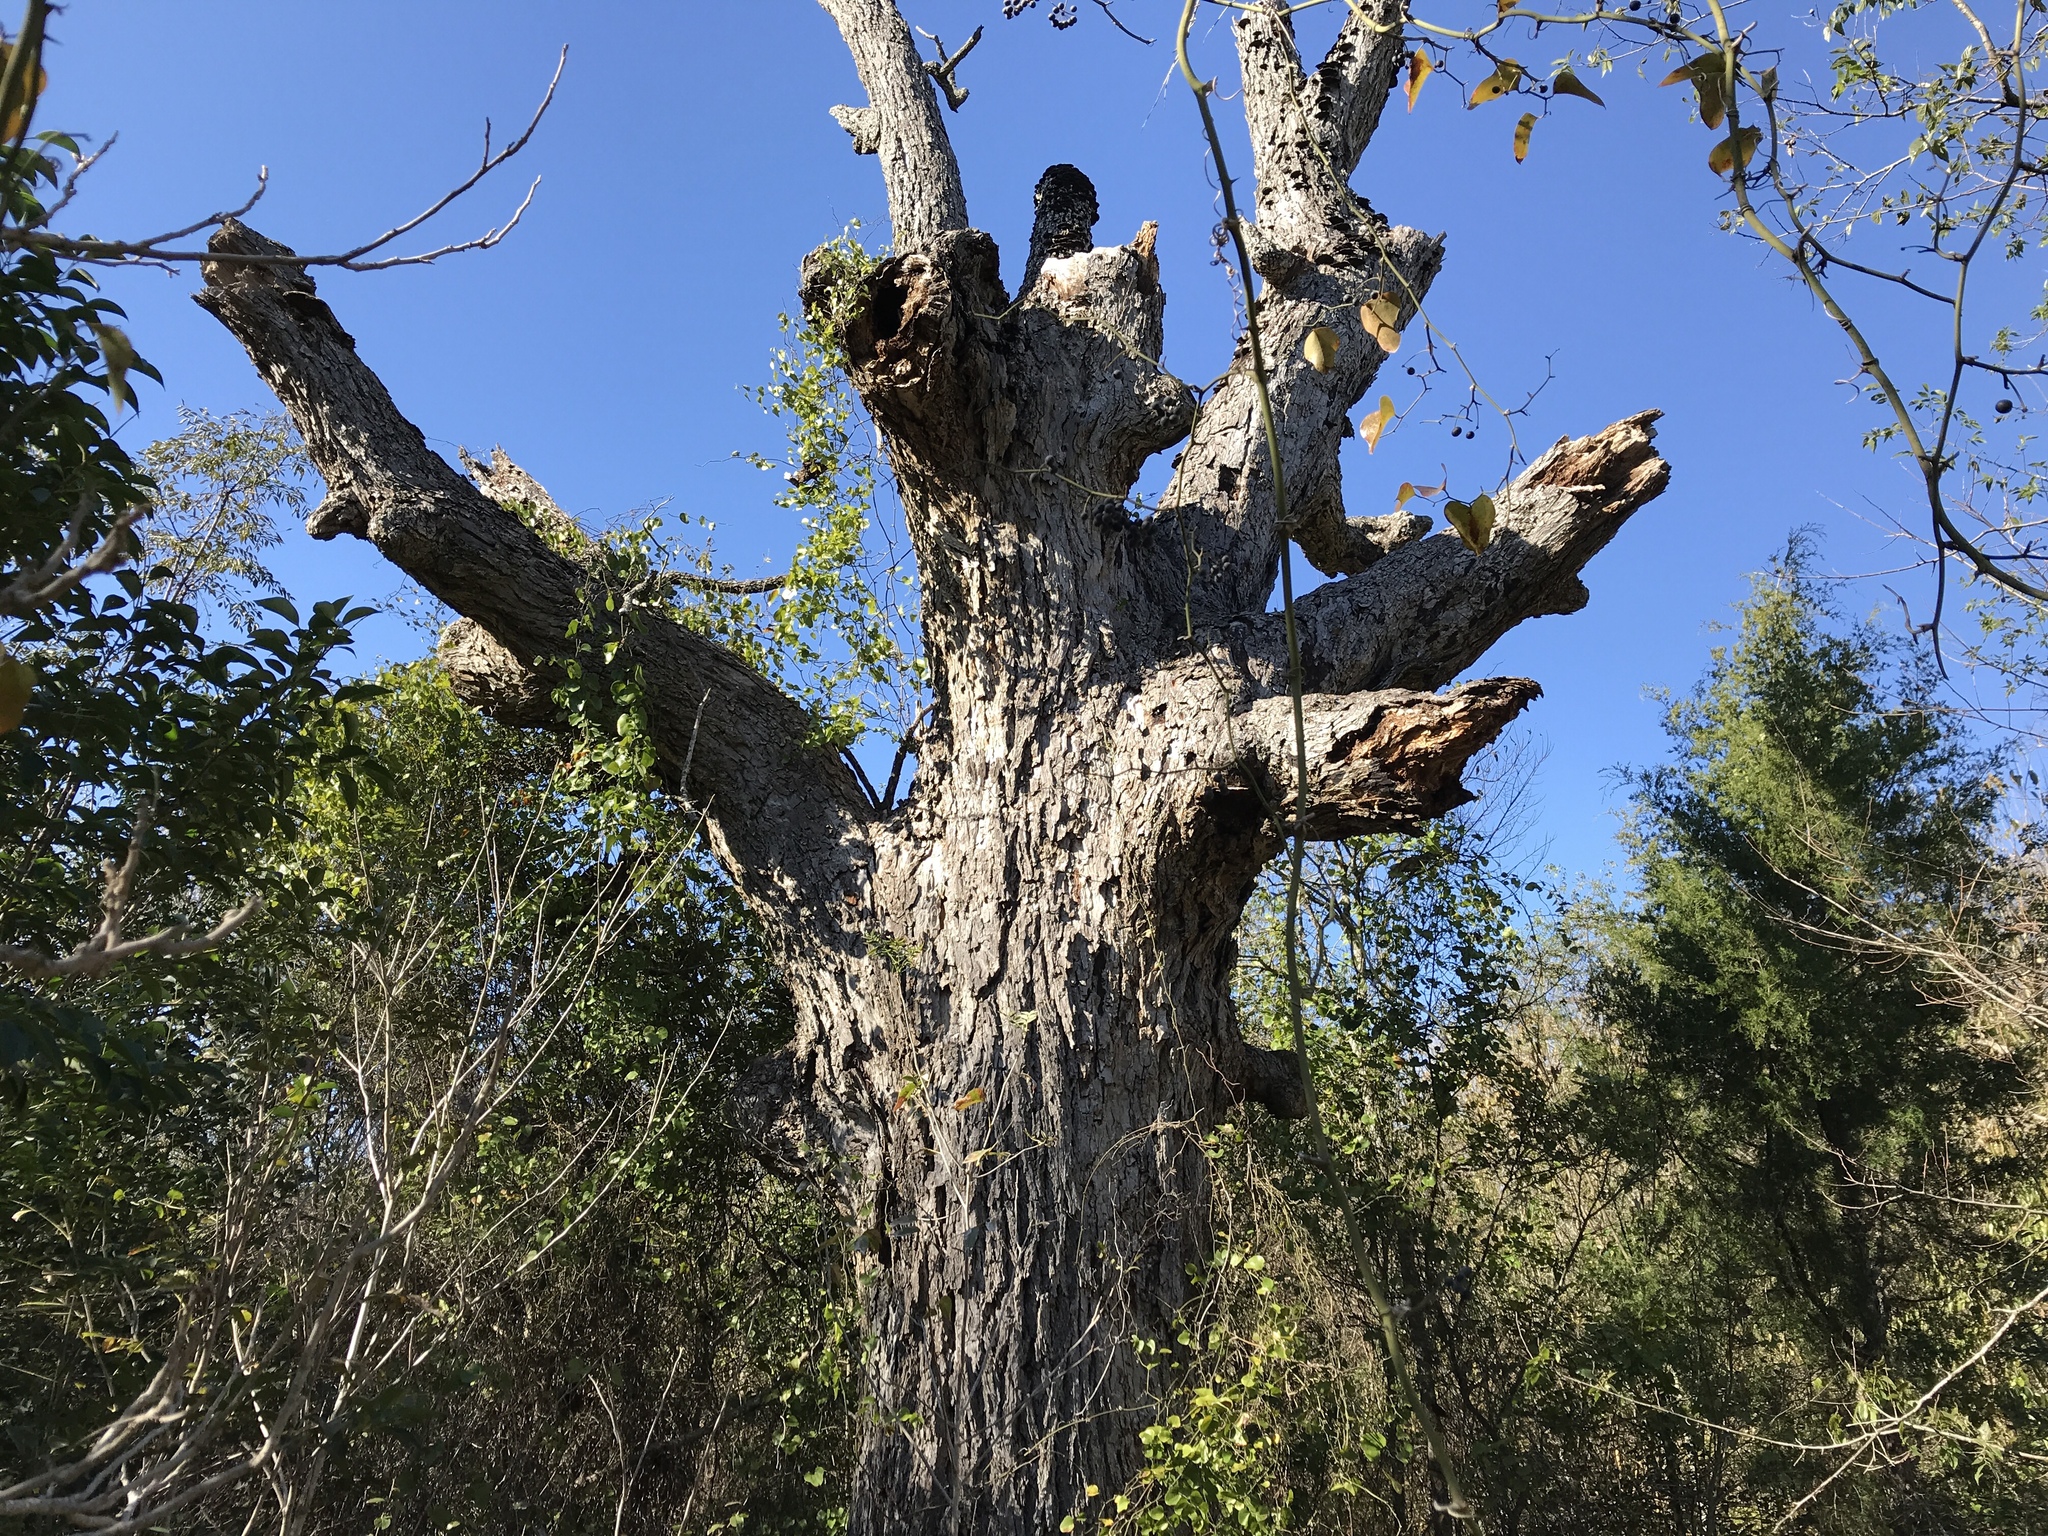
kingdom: Plantae
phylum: Tracheophyta
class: Magnoliopsida
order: Fagales
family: Juglandaceae
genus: Carya
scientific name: Carya illinoinensis
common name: Pecan
